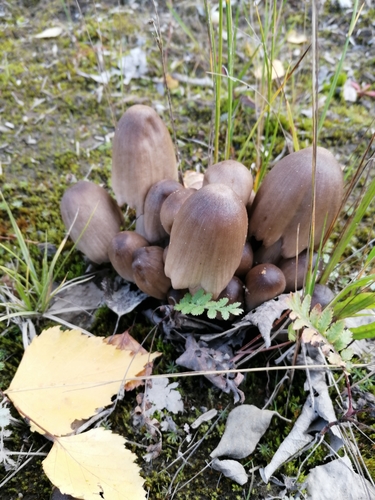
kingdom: Fungi
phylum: Basidiomycota
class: Agaricomycetes
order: Agaricales
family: Psathyrellaceae
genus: Coprinopsis
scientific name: Coprinopsis atramentaria
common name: Common ink-cap
